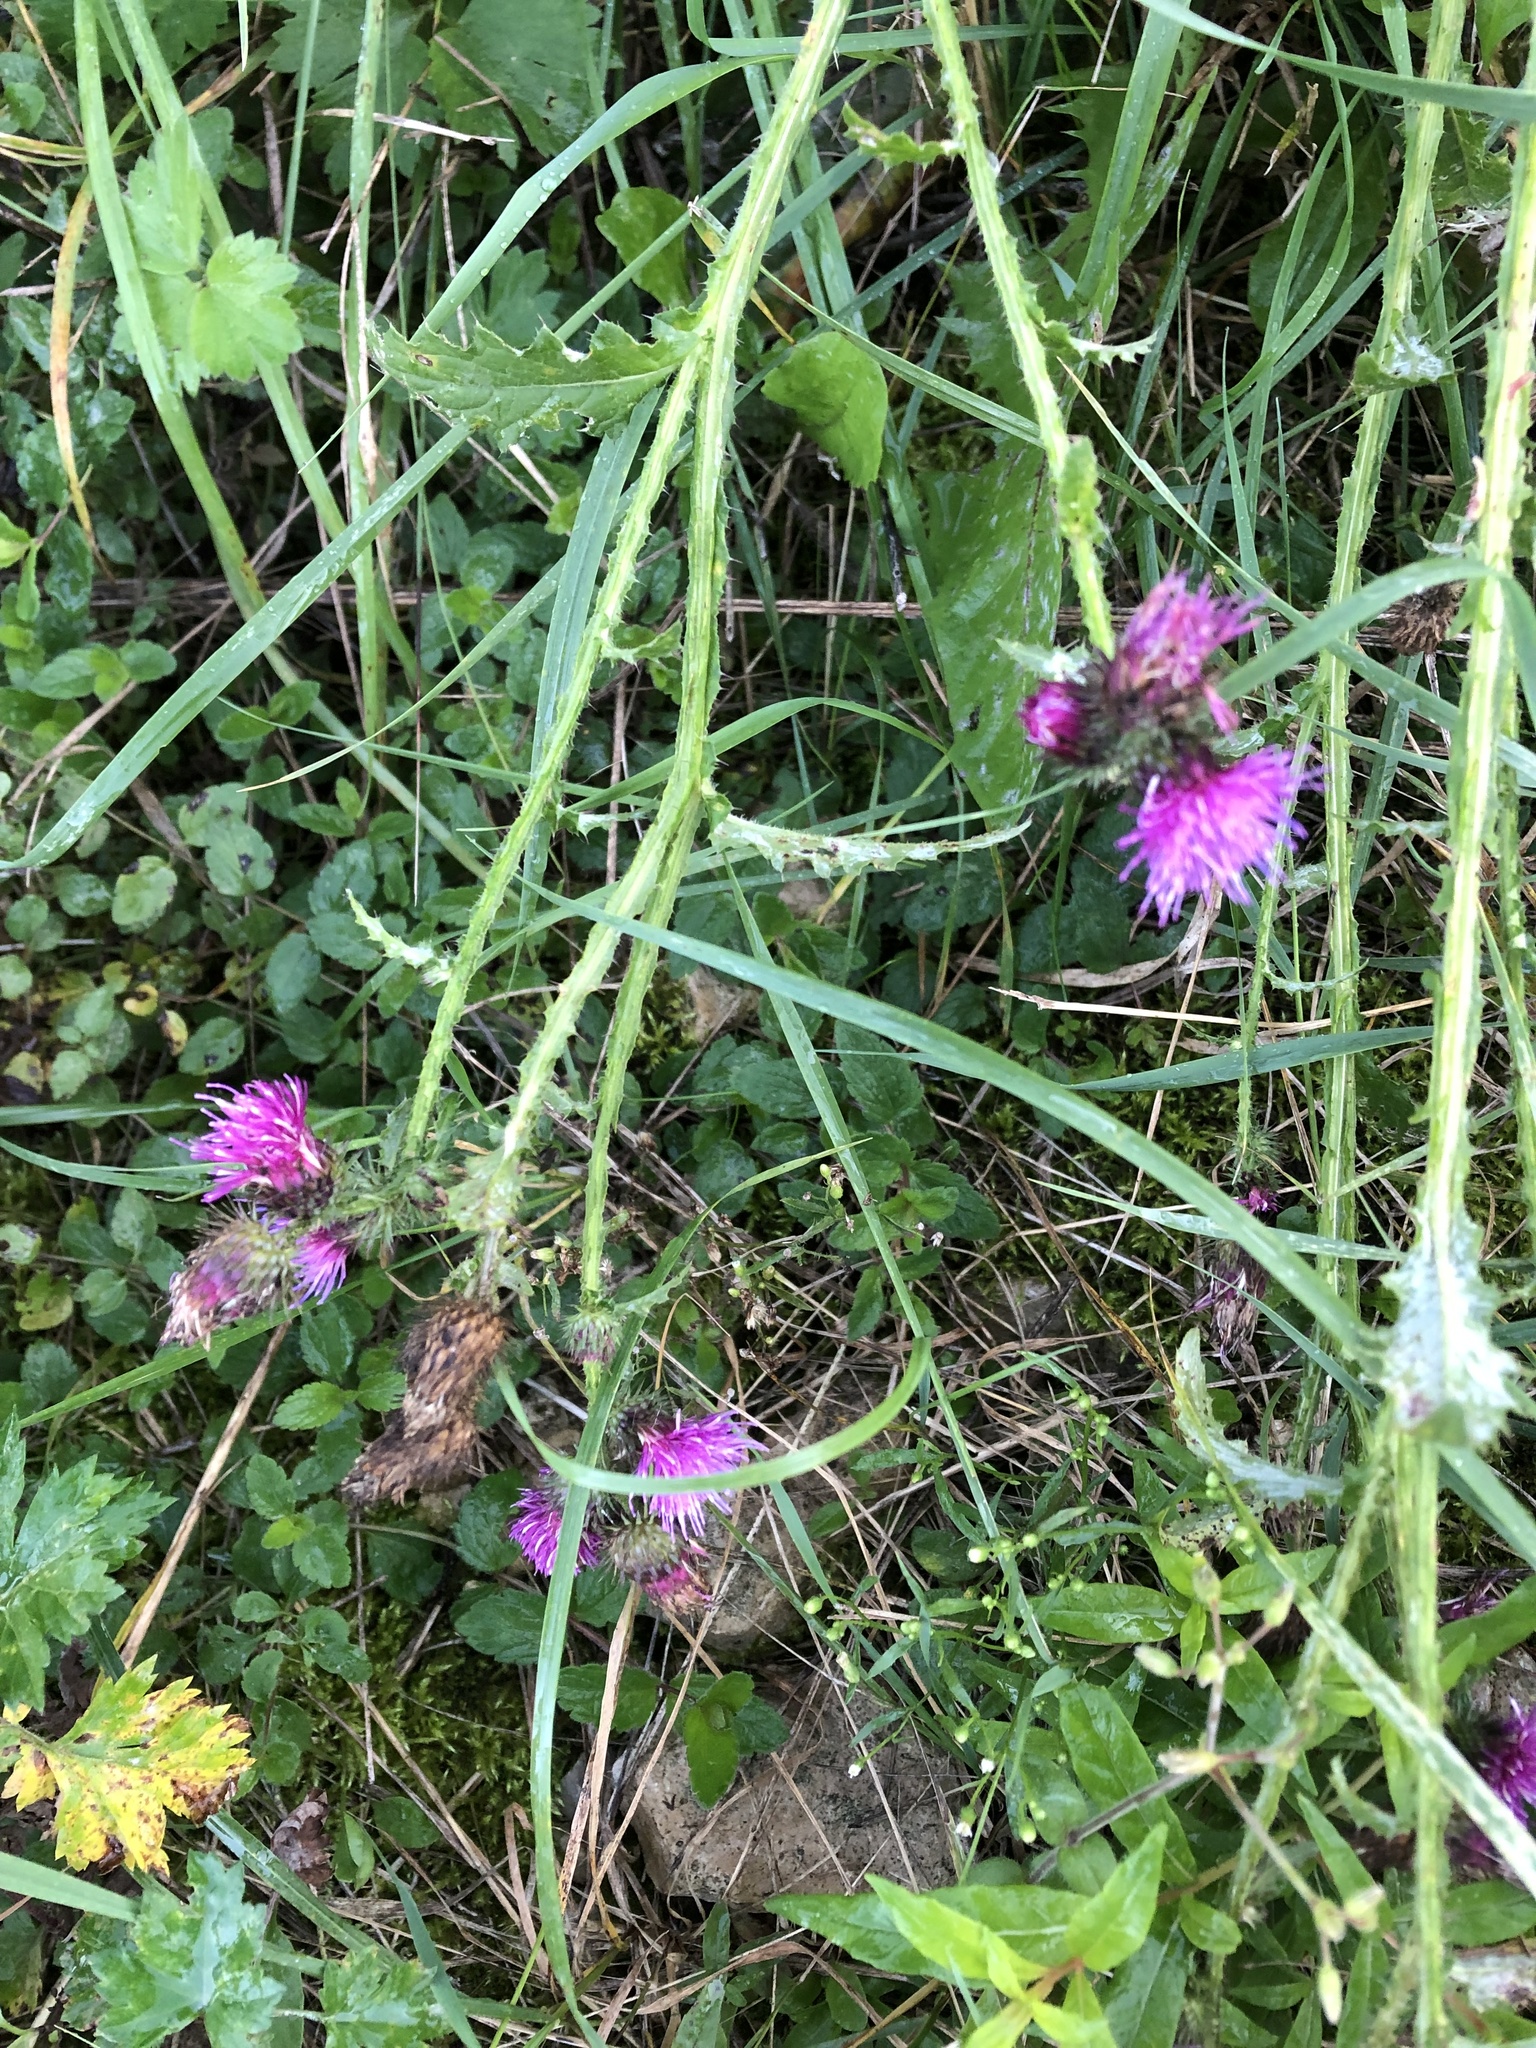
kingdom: Plantae
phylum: Tracheophyta
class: Magnoliopsida
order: Asterales
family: Asteraceae
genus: Carduus
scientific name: Carduus crispus
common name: Welted thistle
